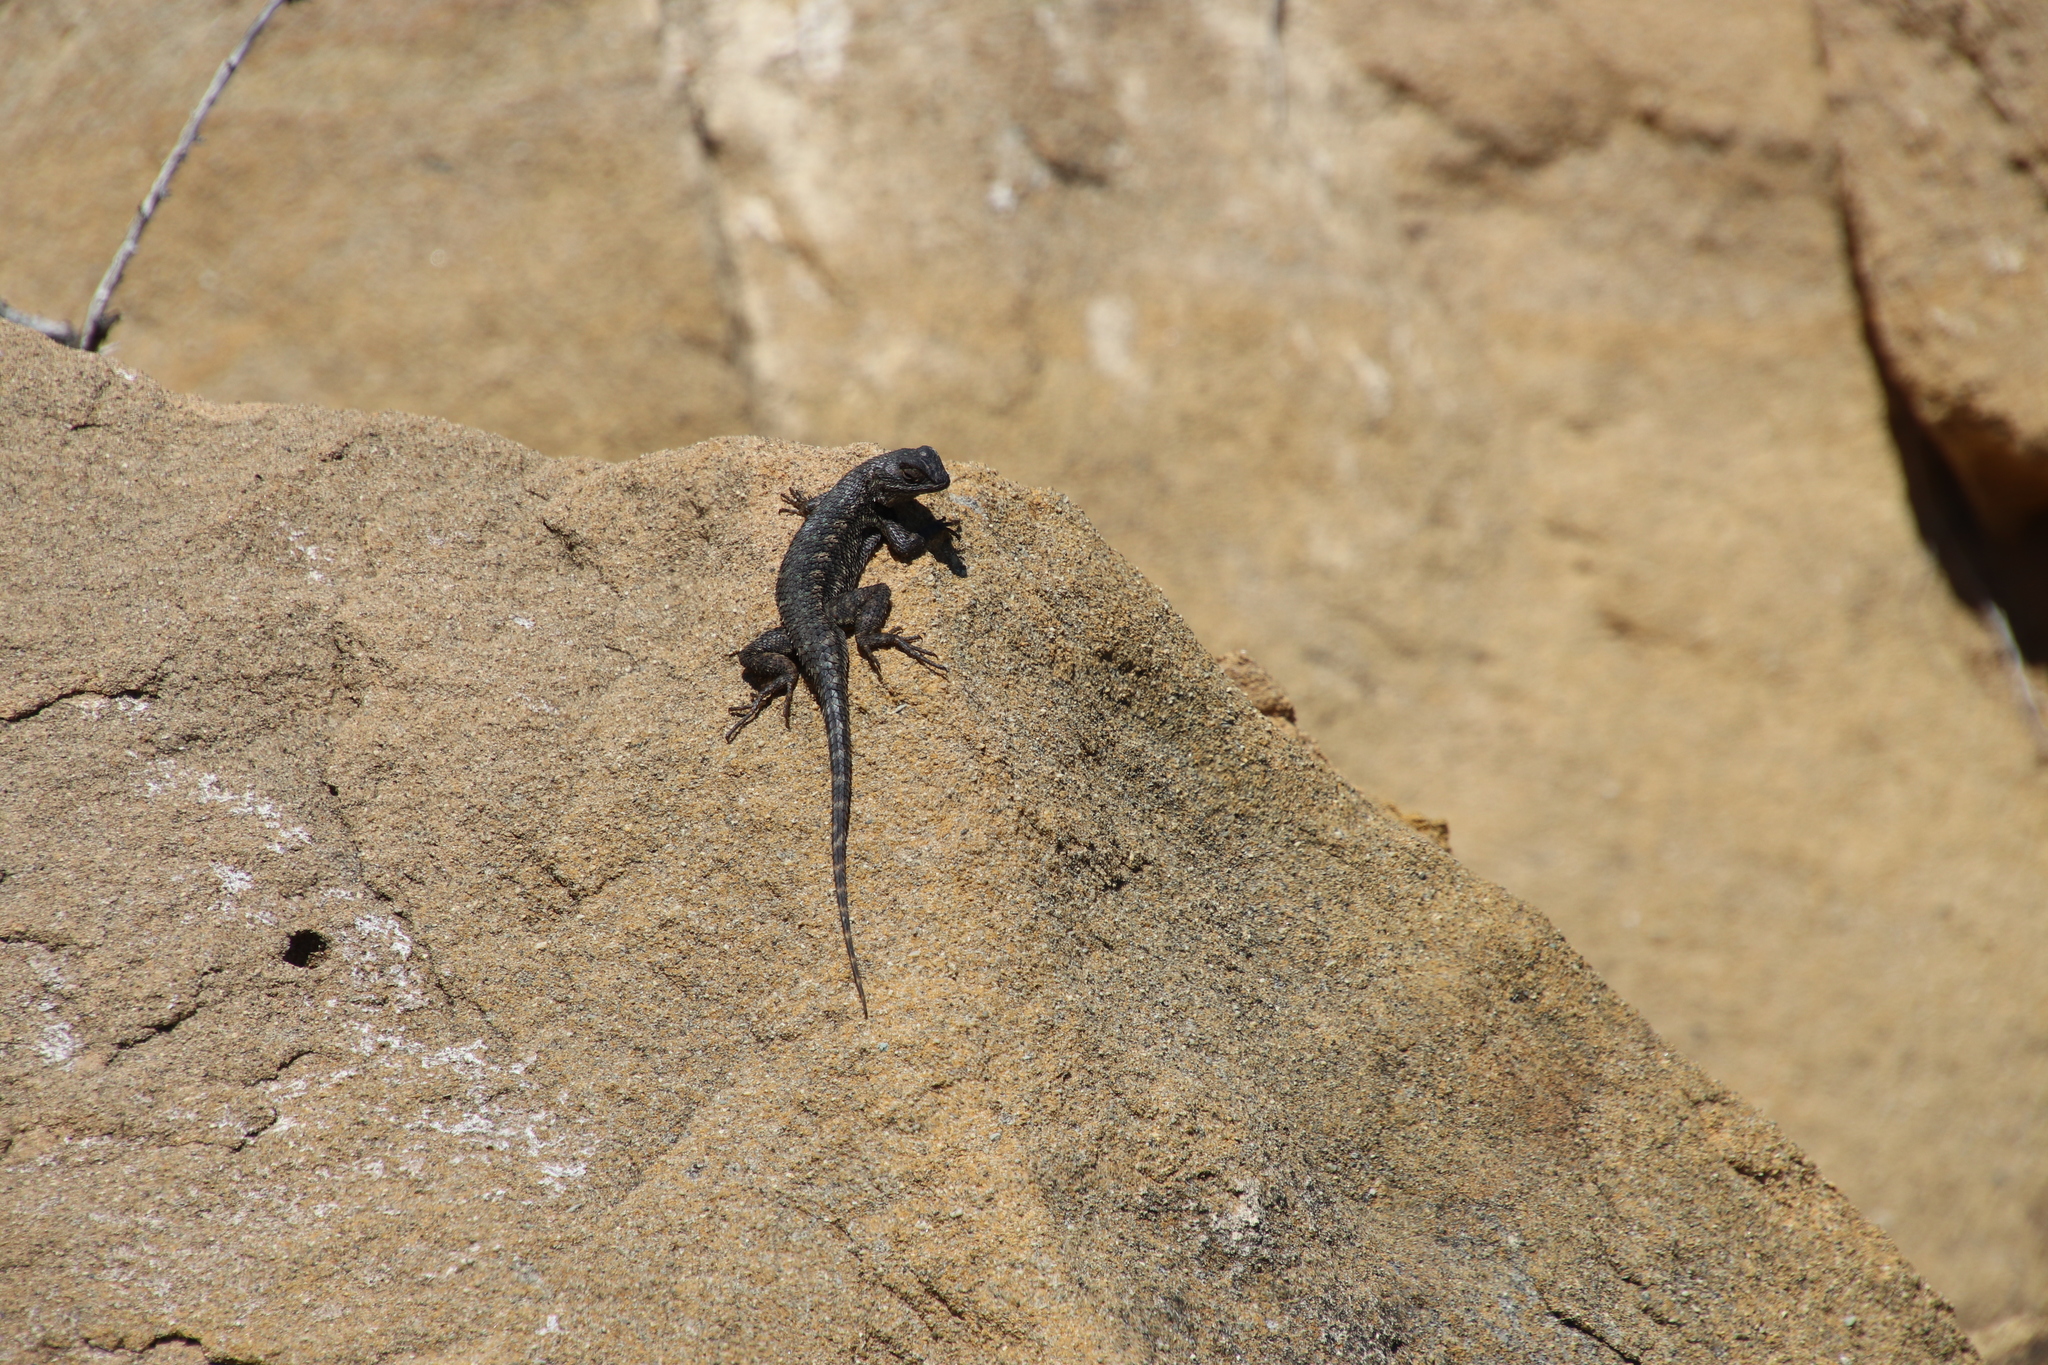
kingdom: Animalia
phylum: Chordata
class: Squamata
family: Phrynosomatidae
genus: Sceloporus
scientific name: Sceloporus occidentalis
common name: Western fence lizard
